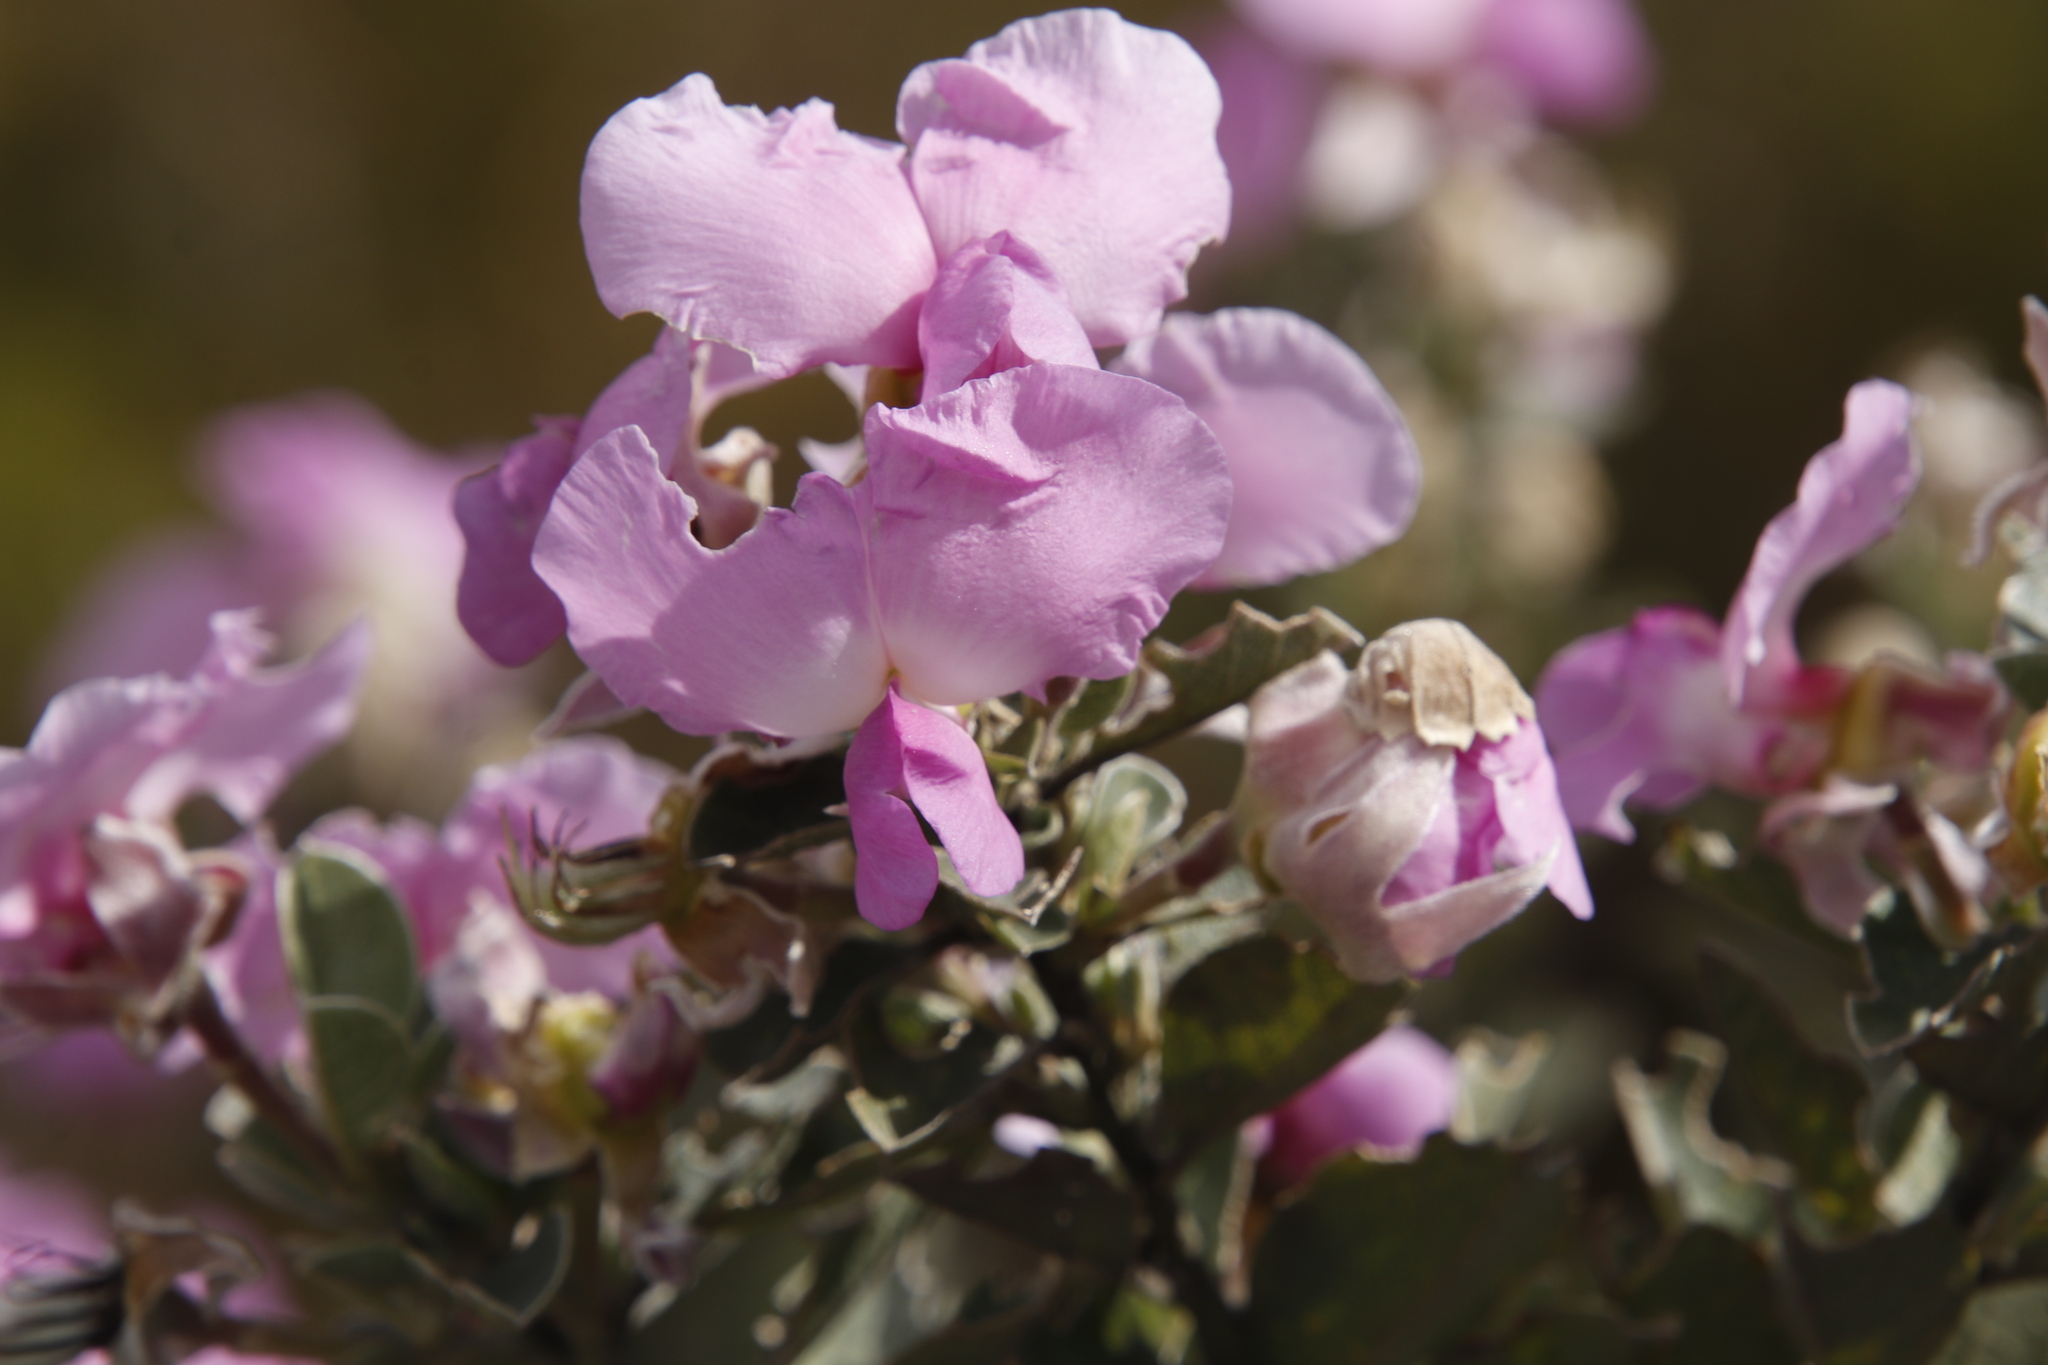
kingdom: Plantae
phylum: Tracheophyta
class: Magnoliopsida
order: Fabales
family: Fabaceae
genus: Podalyria
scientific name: Podalyria calyptrata
